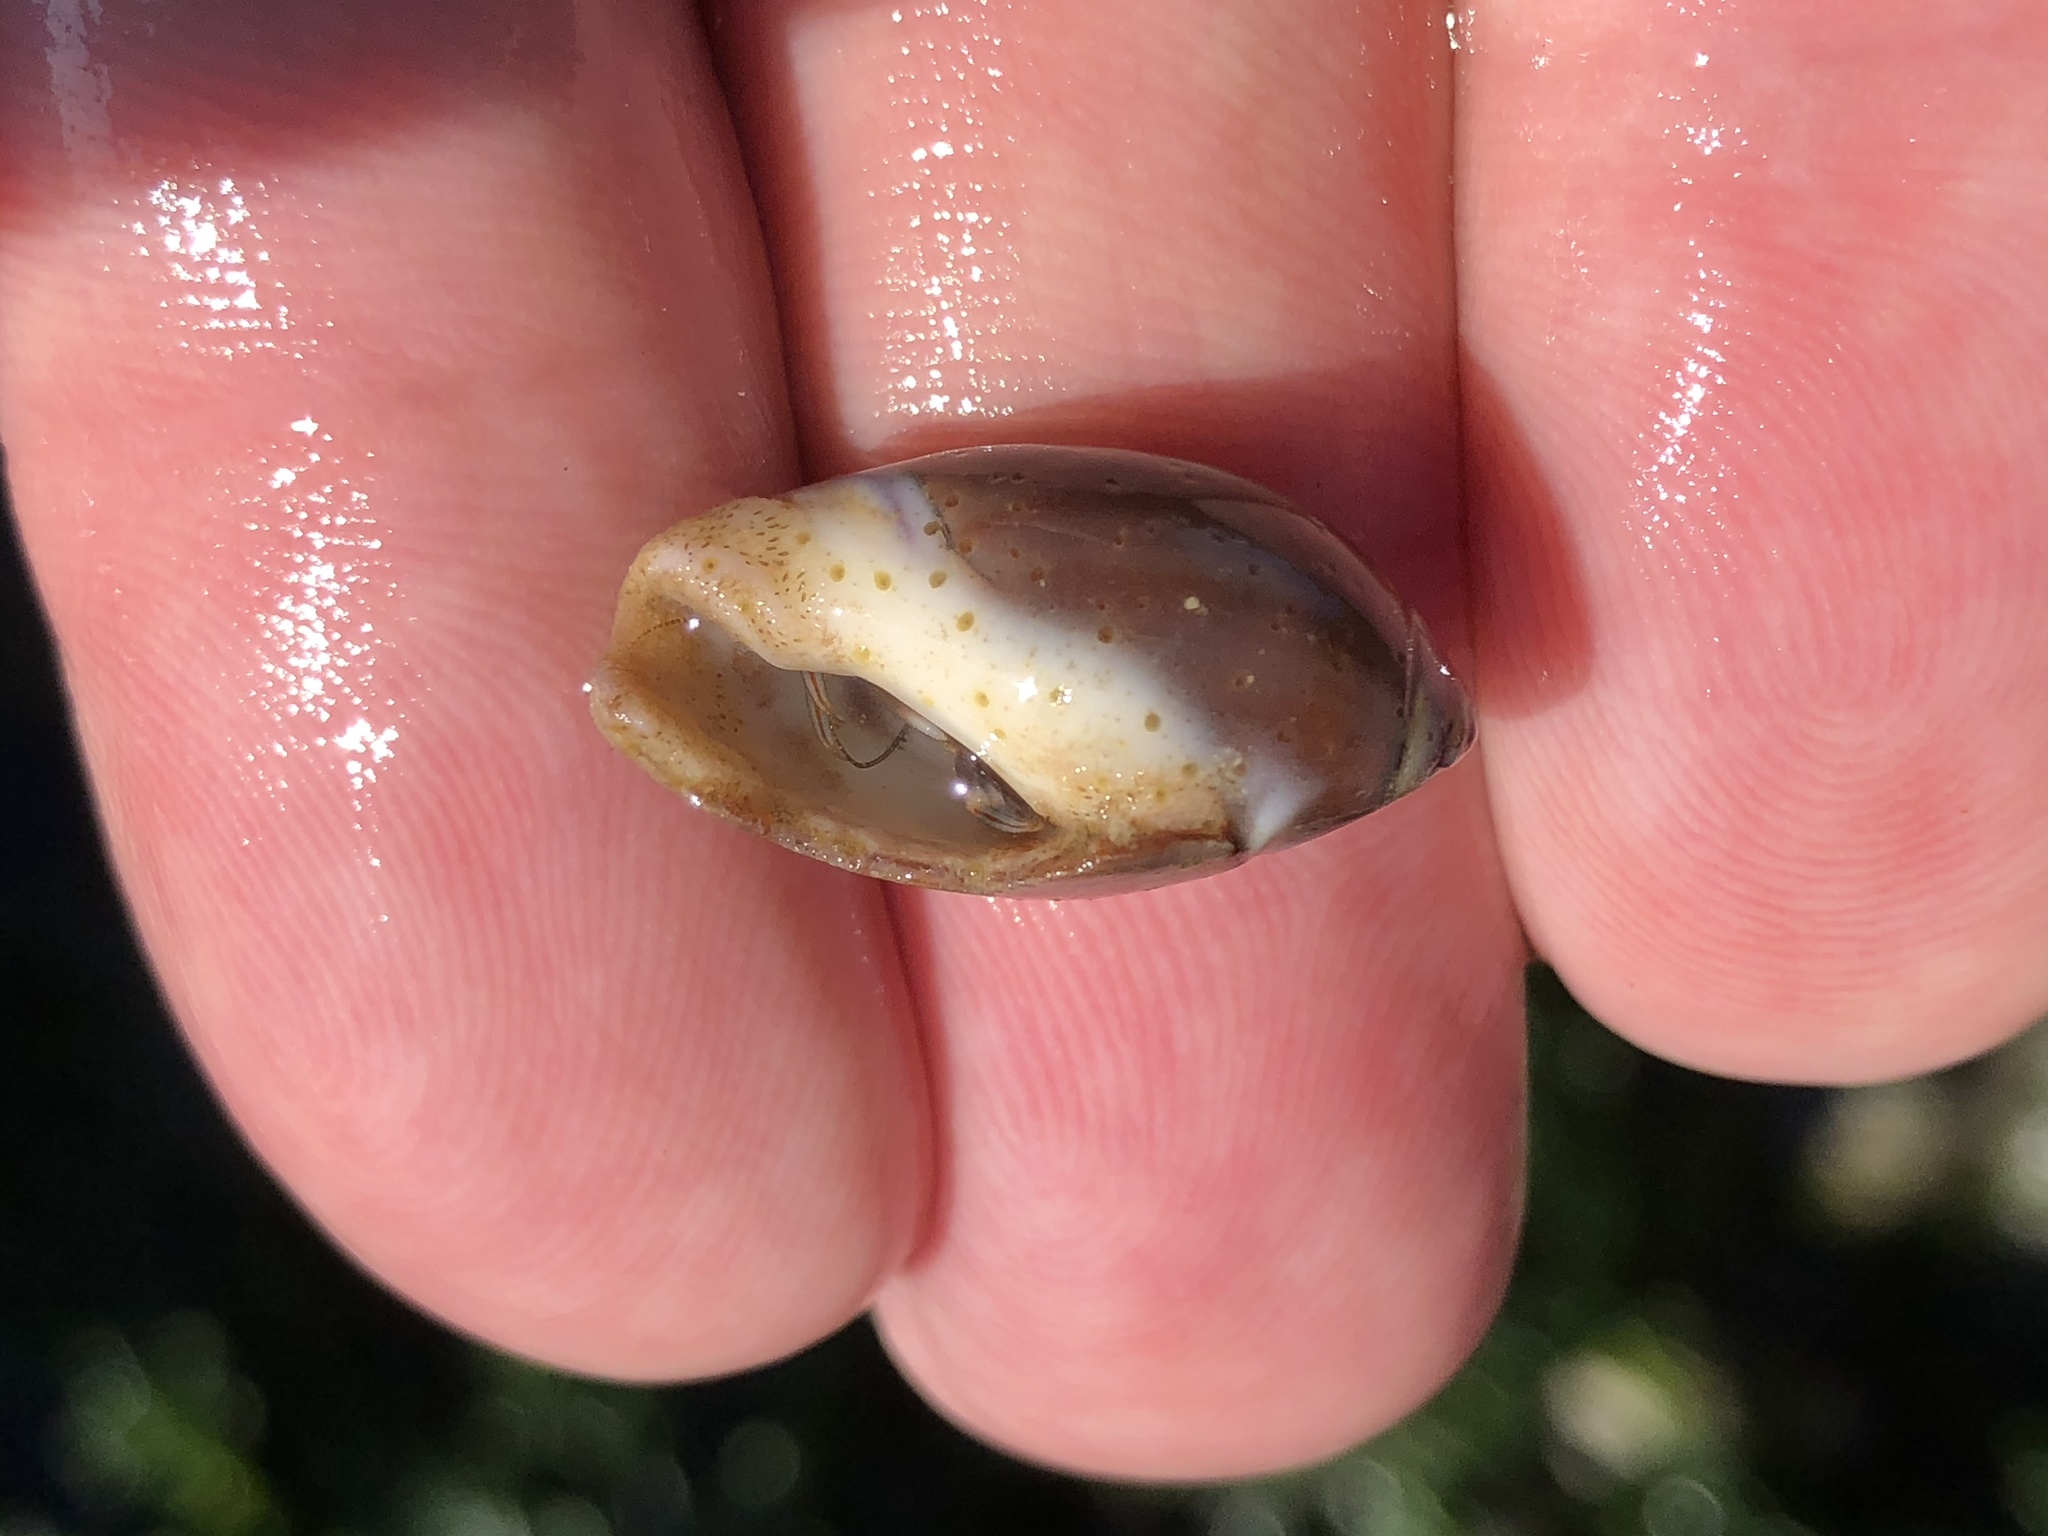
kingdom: Animalia
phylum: Mollusca
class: Gastropoda
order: Neogastropoda
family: Olividae
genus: Callianax
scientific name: Callianax biplicata
